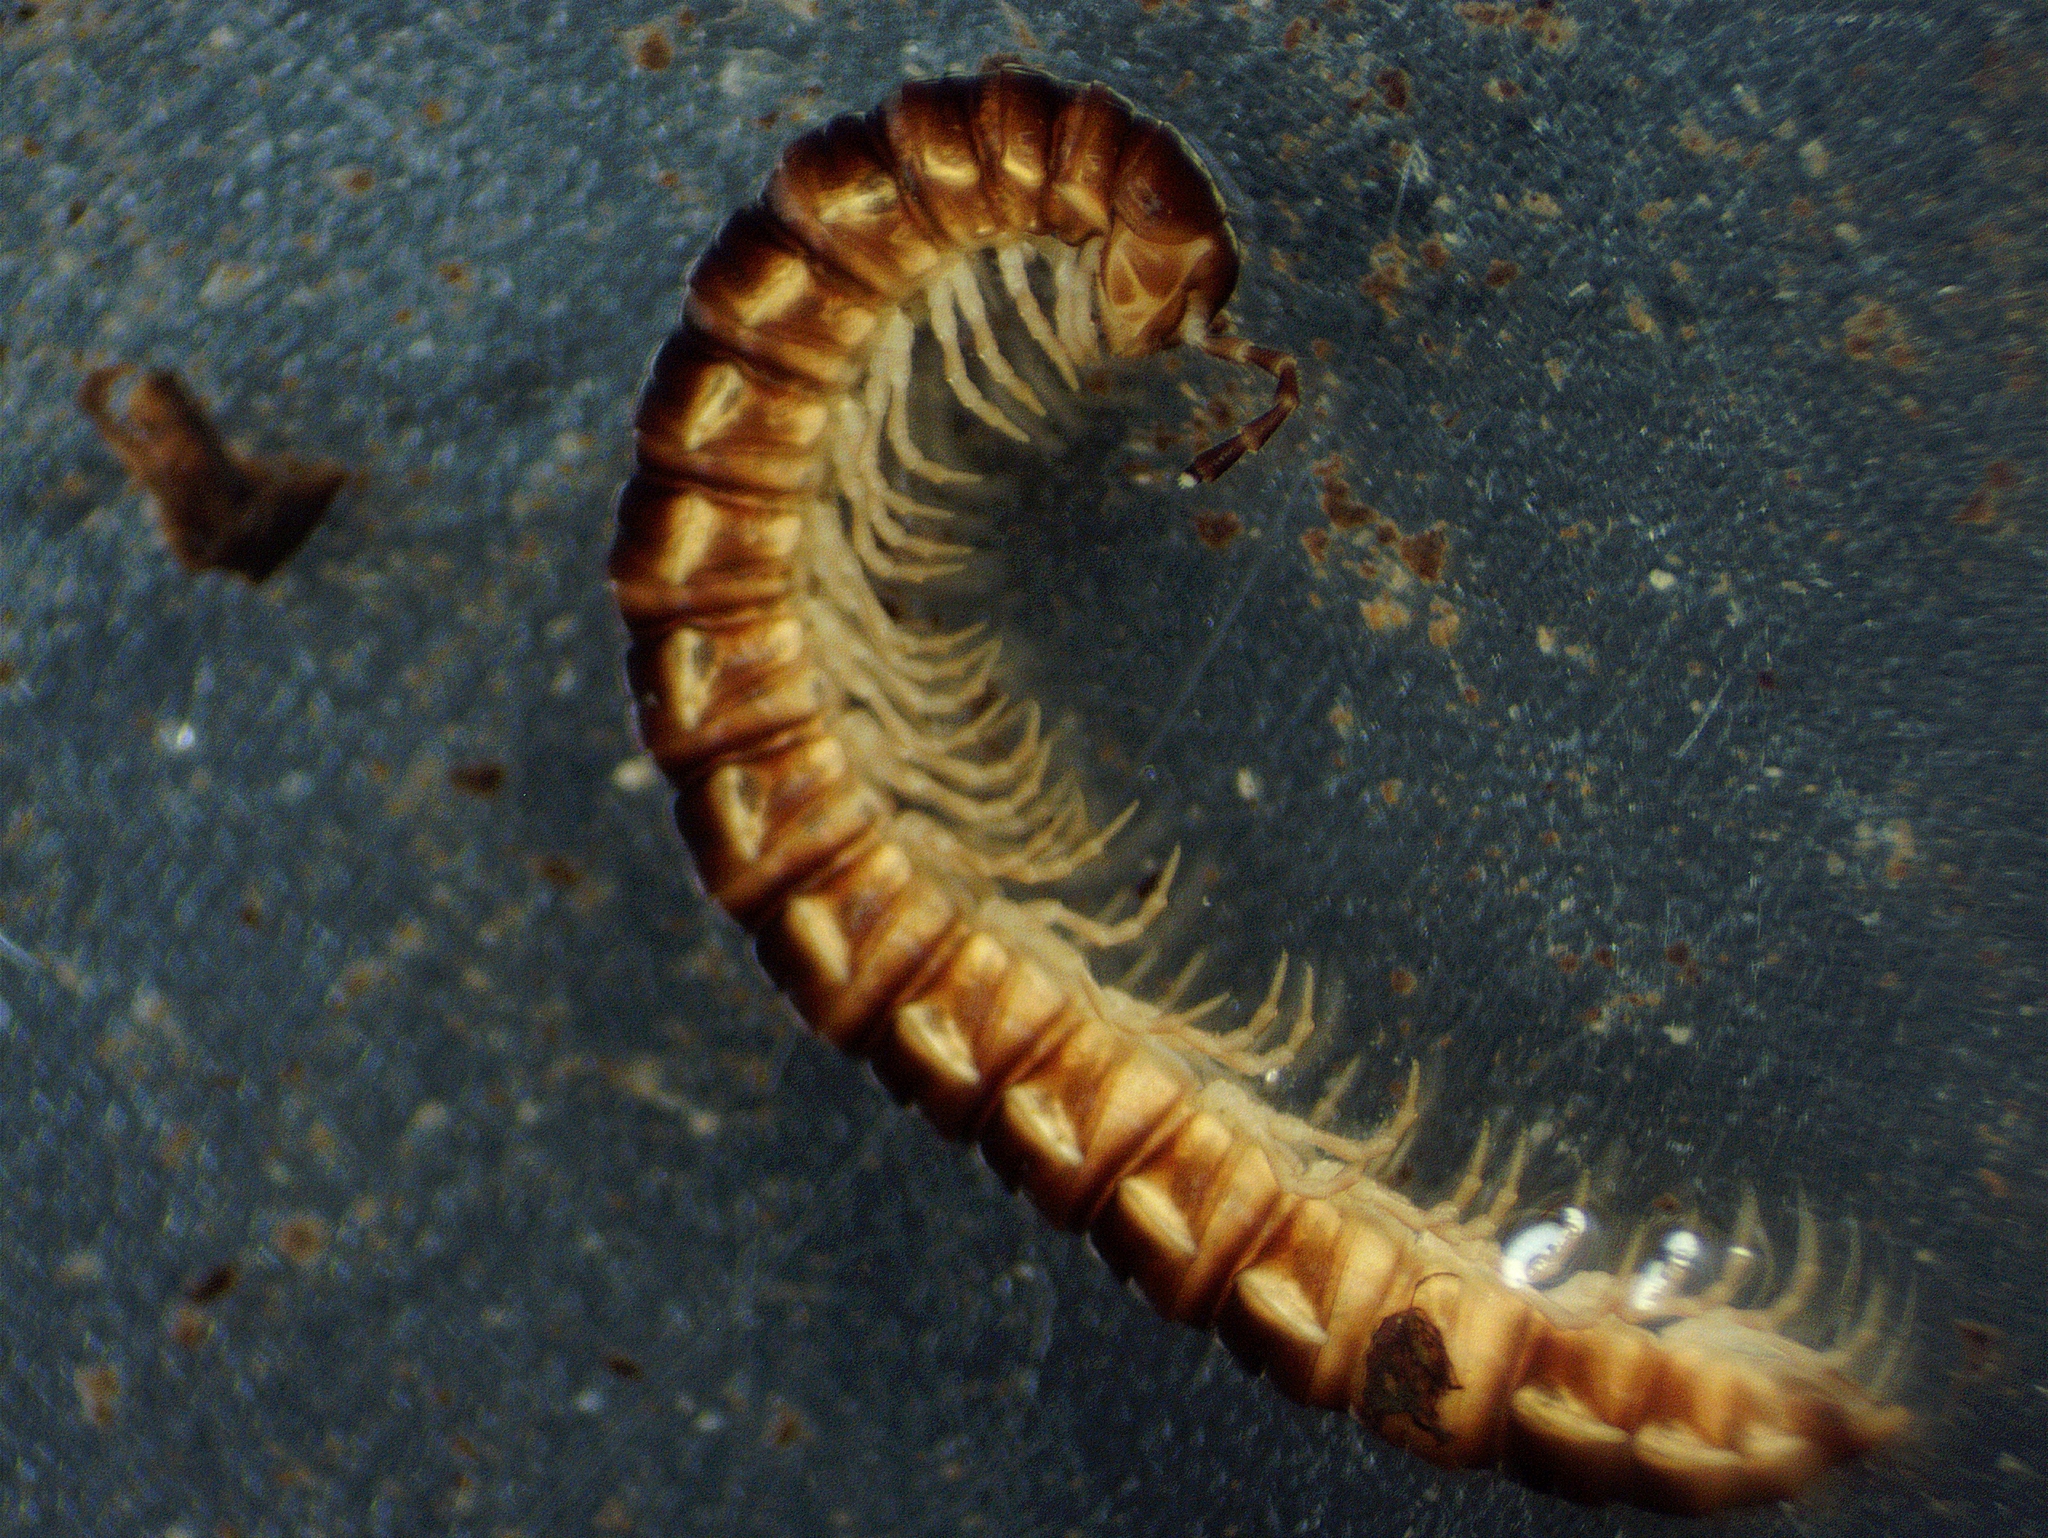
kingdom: Animalia
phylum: Arthropoda
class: Diplopoda
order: Polydesmida
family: Paradoxosomatidae
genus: Oxidus
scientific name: Oxidus gracilis
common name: Greenhouse millipede
